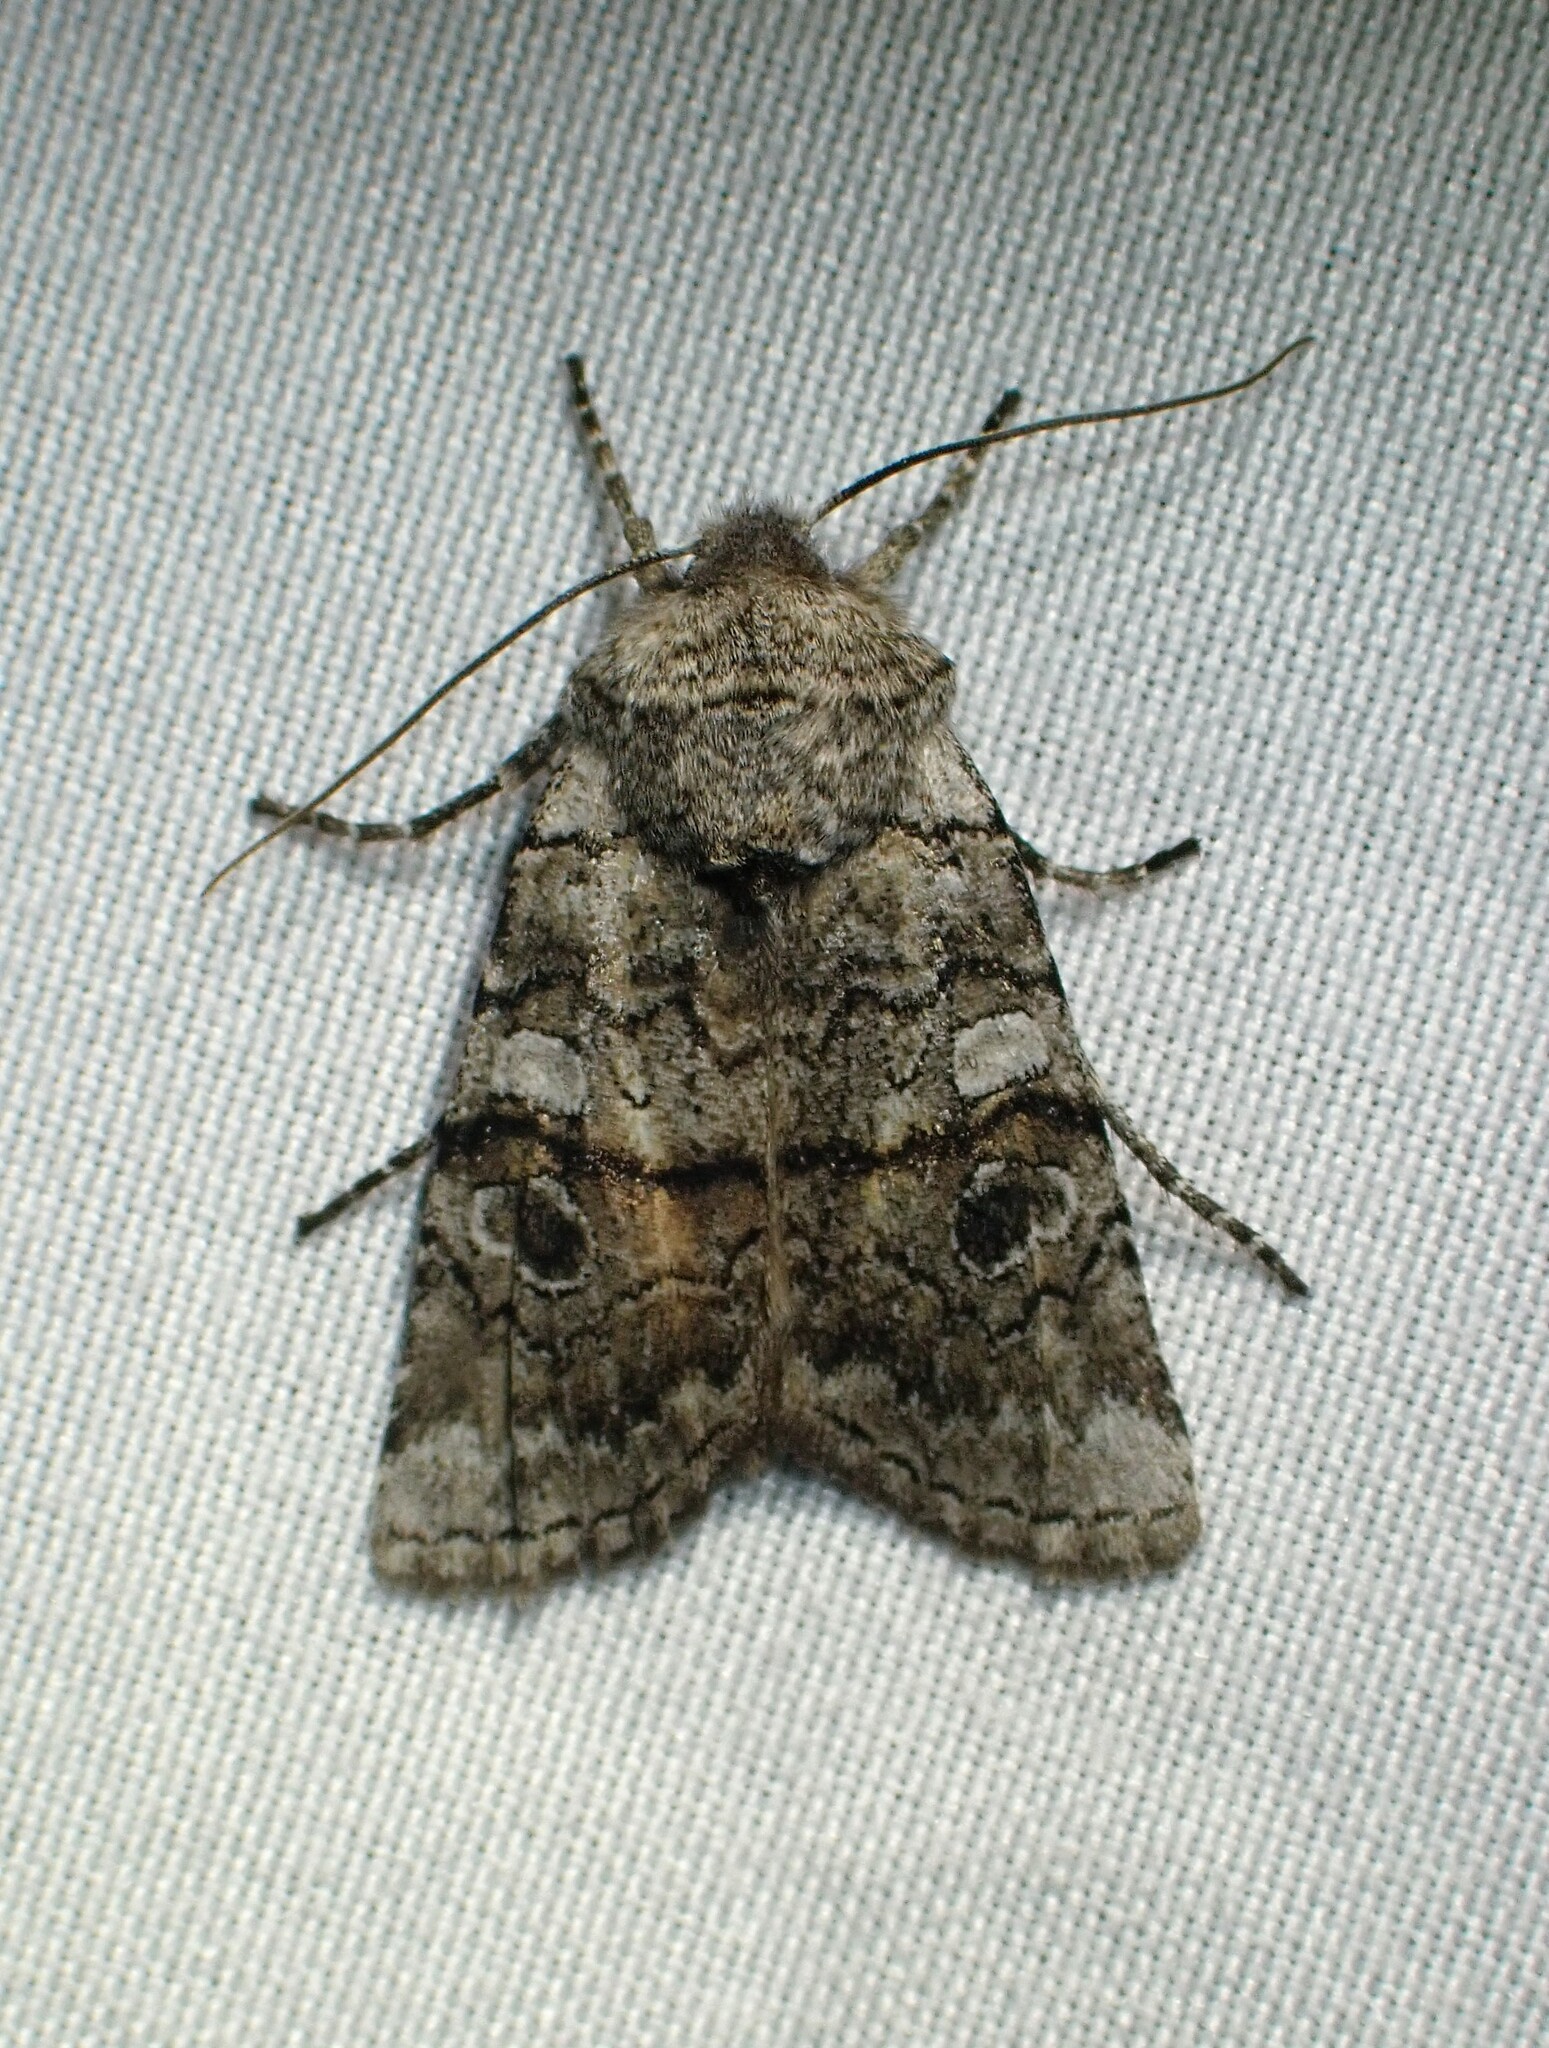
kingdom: Animalia
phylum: Arthropoda
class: Insecta
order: Lepidoptera
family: Noctuidae
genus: Litholomia
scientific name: Litholomia napaea
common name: False pinion moth
